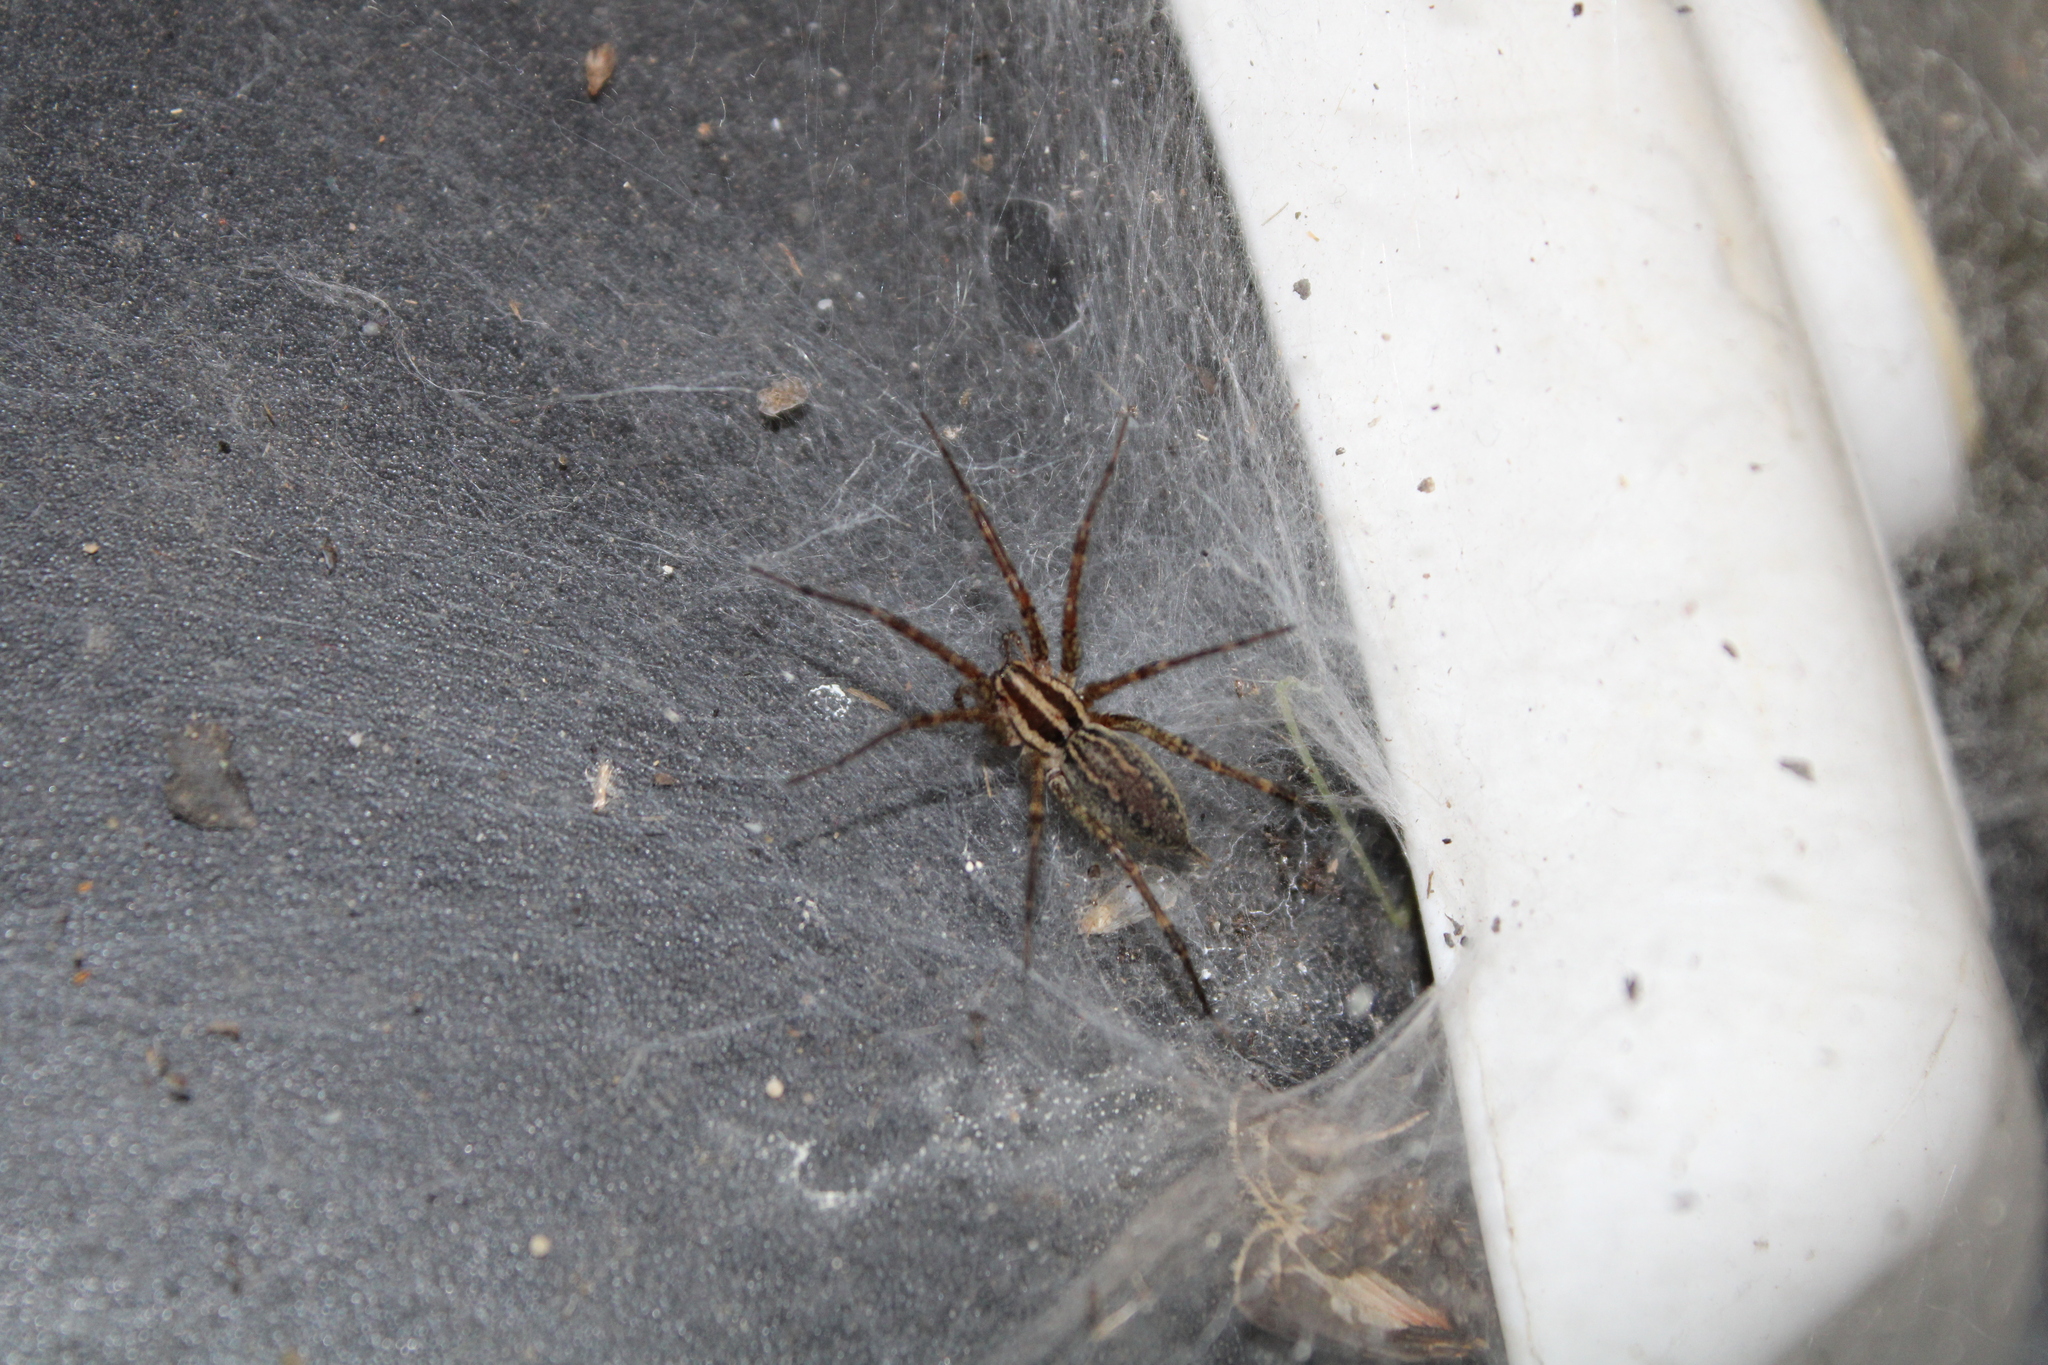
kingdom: Animalia
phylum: Arthropoda
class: Arachnida
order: Araneae
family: Agelenidae
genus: Agelenopsis
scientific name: Agelenopsis
